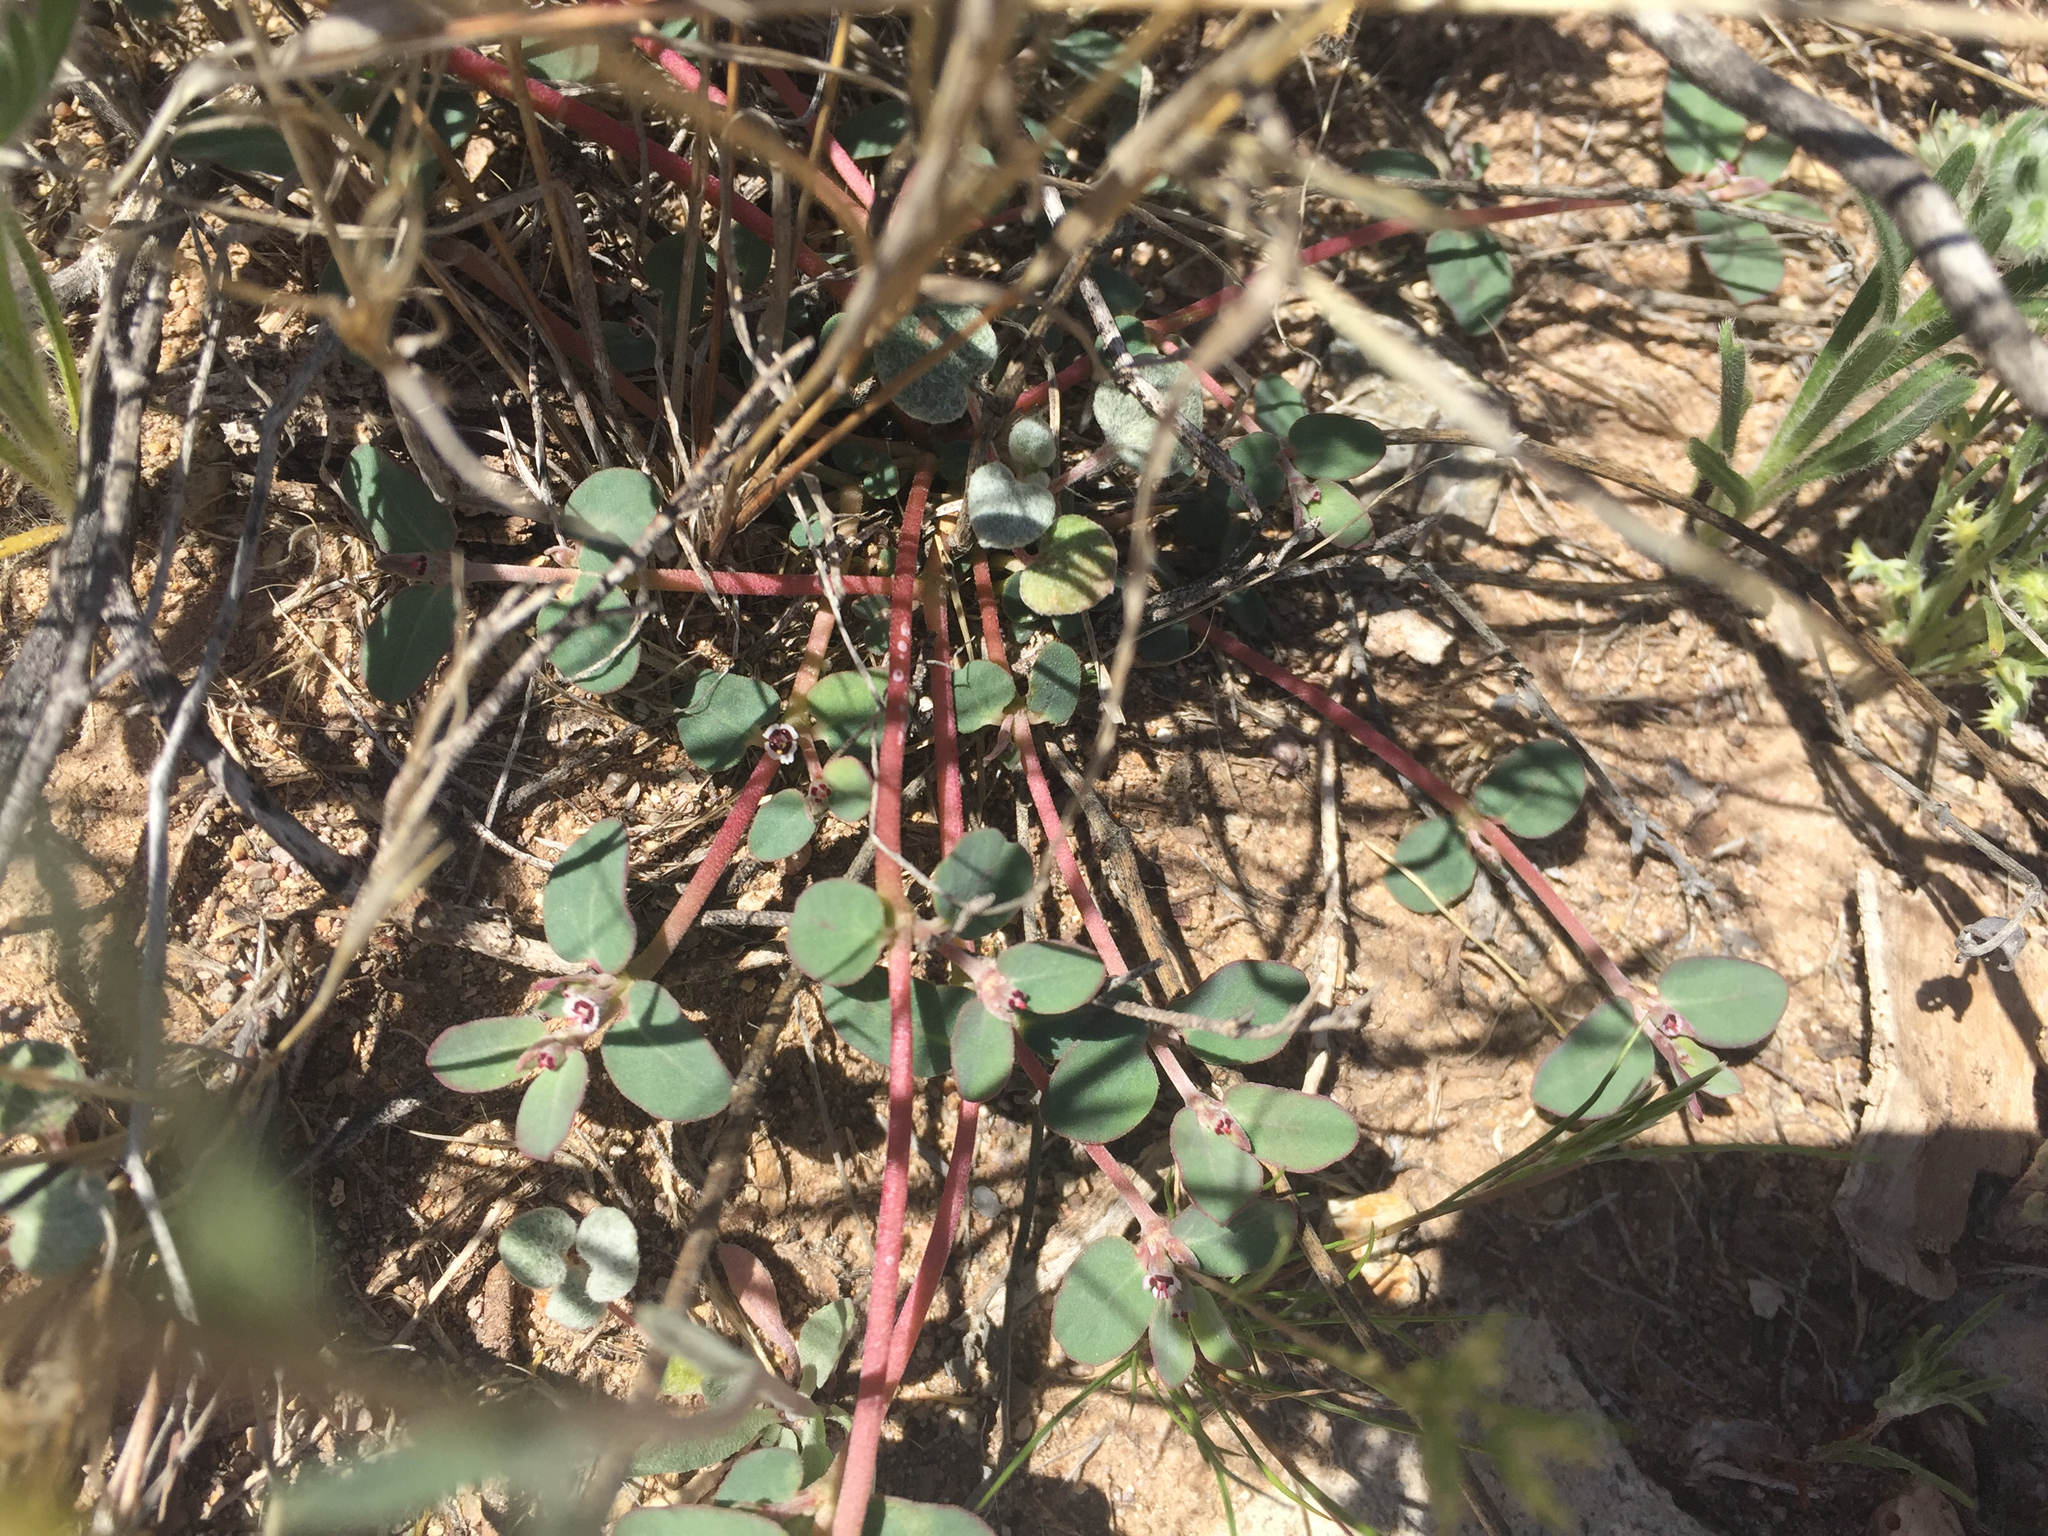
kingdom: Plantae
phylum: Tracheophyta
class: Magnoliopsida
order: Malpighiales
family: Euphorbiaceae
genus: Euphorbia
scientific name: Euphorbia pediculifera
